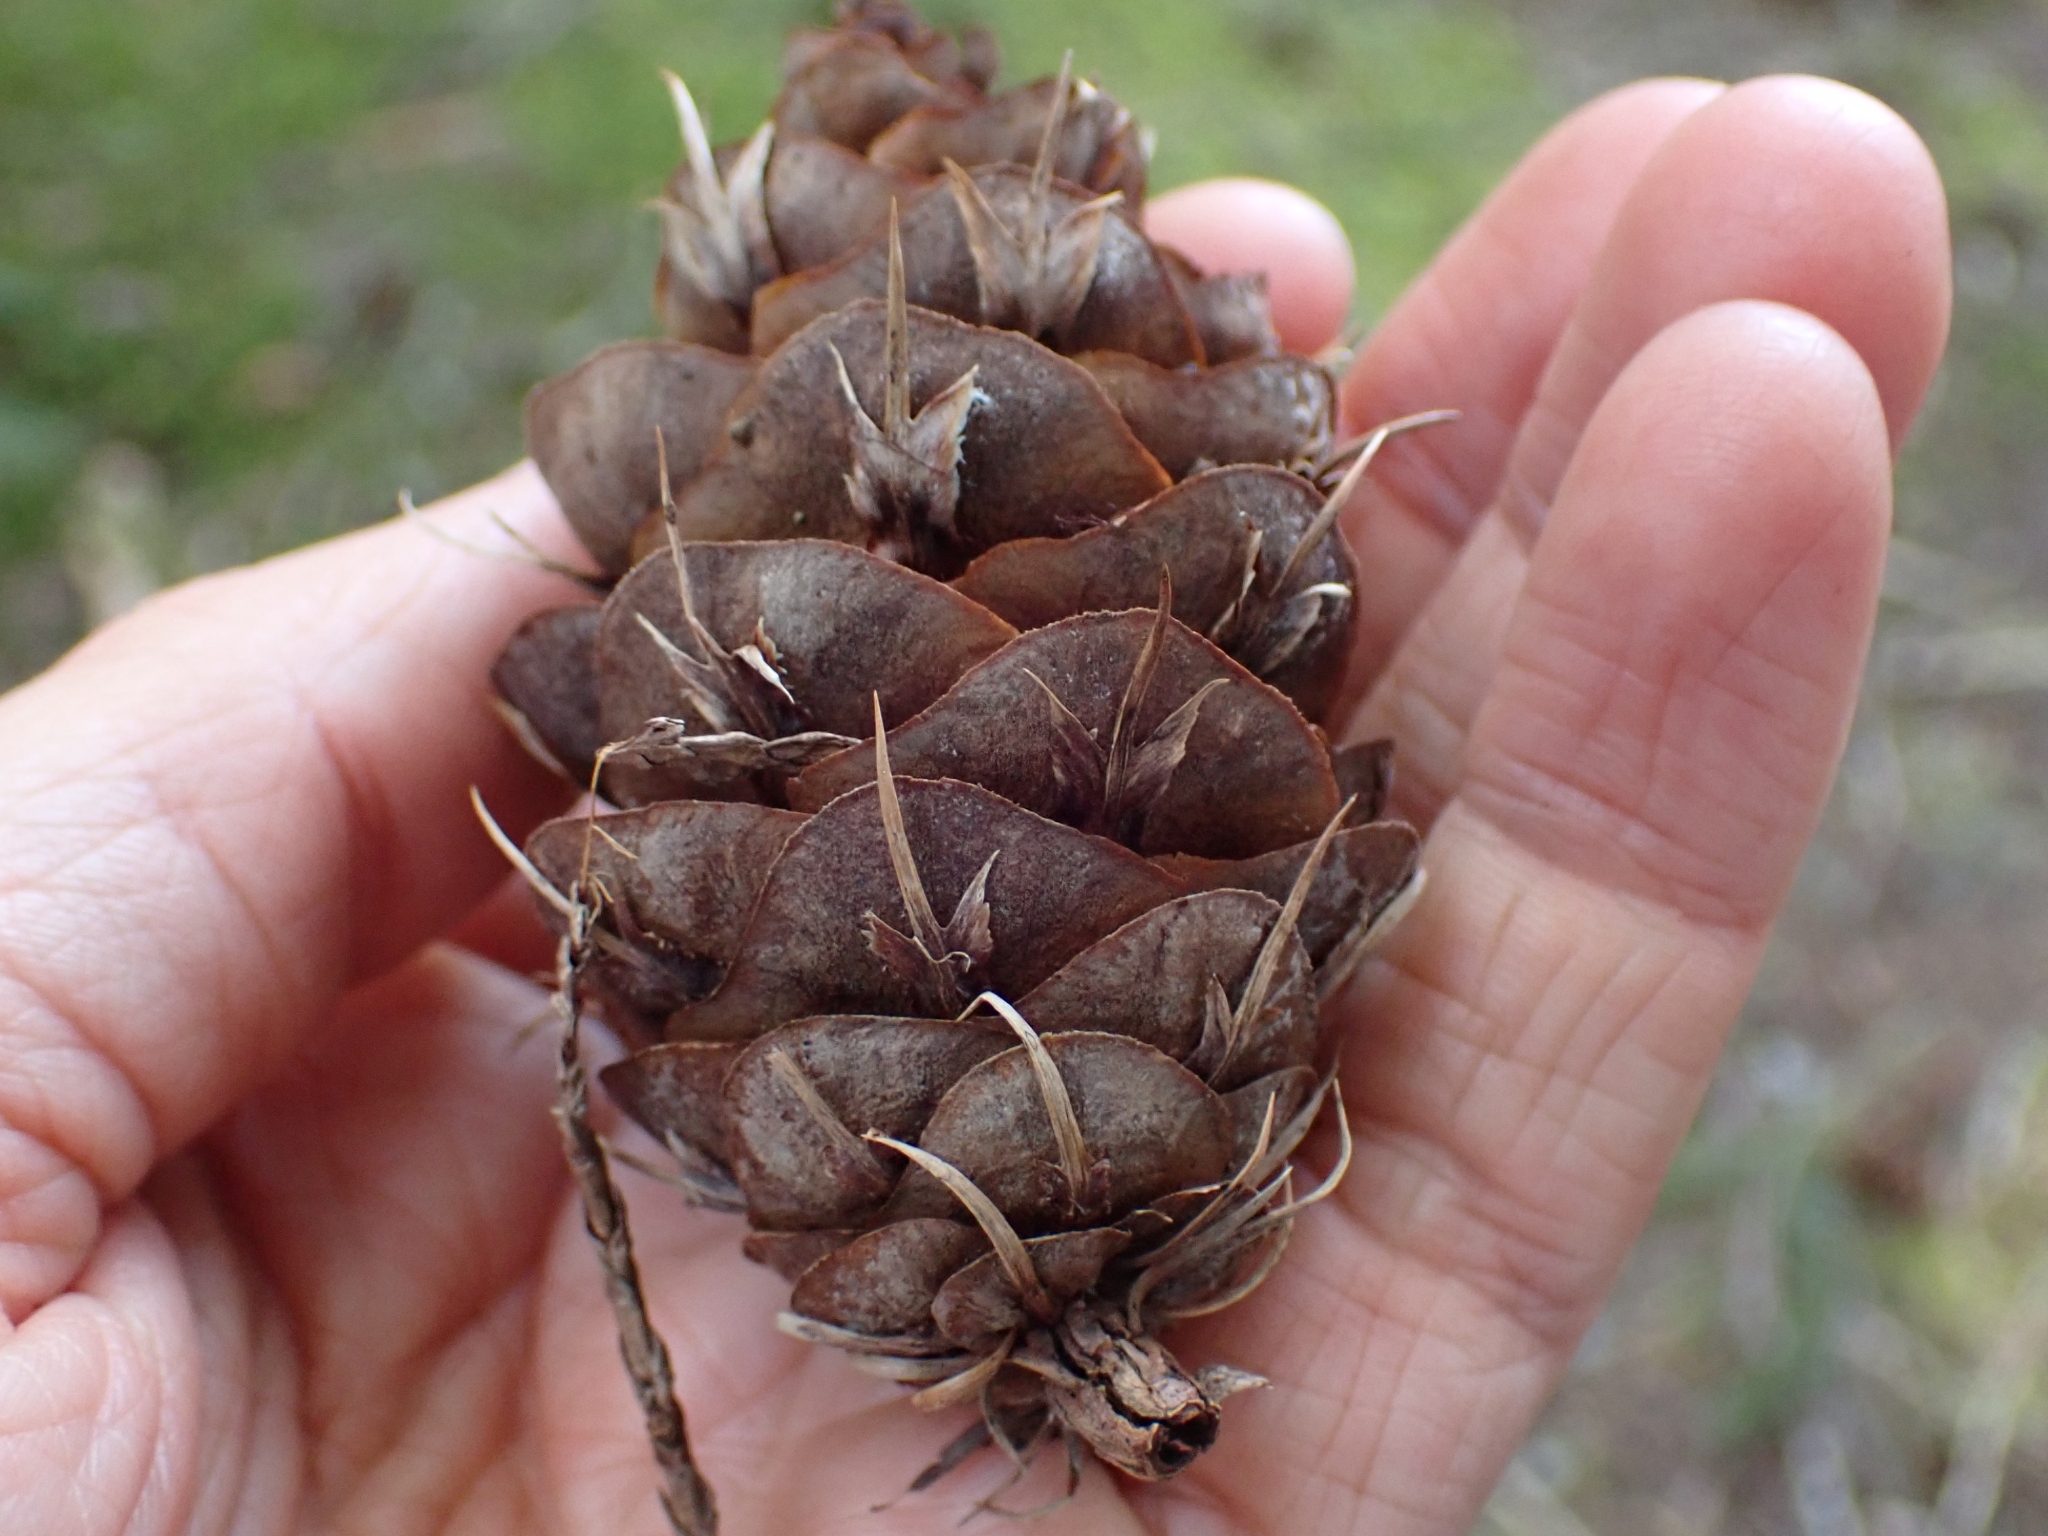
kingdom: Plantae
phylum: Tracheophyta
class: Pinopsida
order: Pinales
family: Pinaceae
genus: Pseudotsuga
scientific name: Pseudotsuga menziesii
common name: Douglas fir
